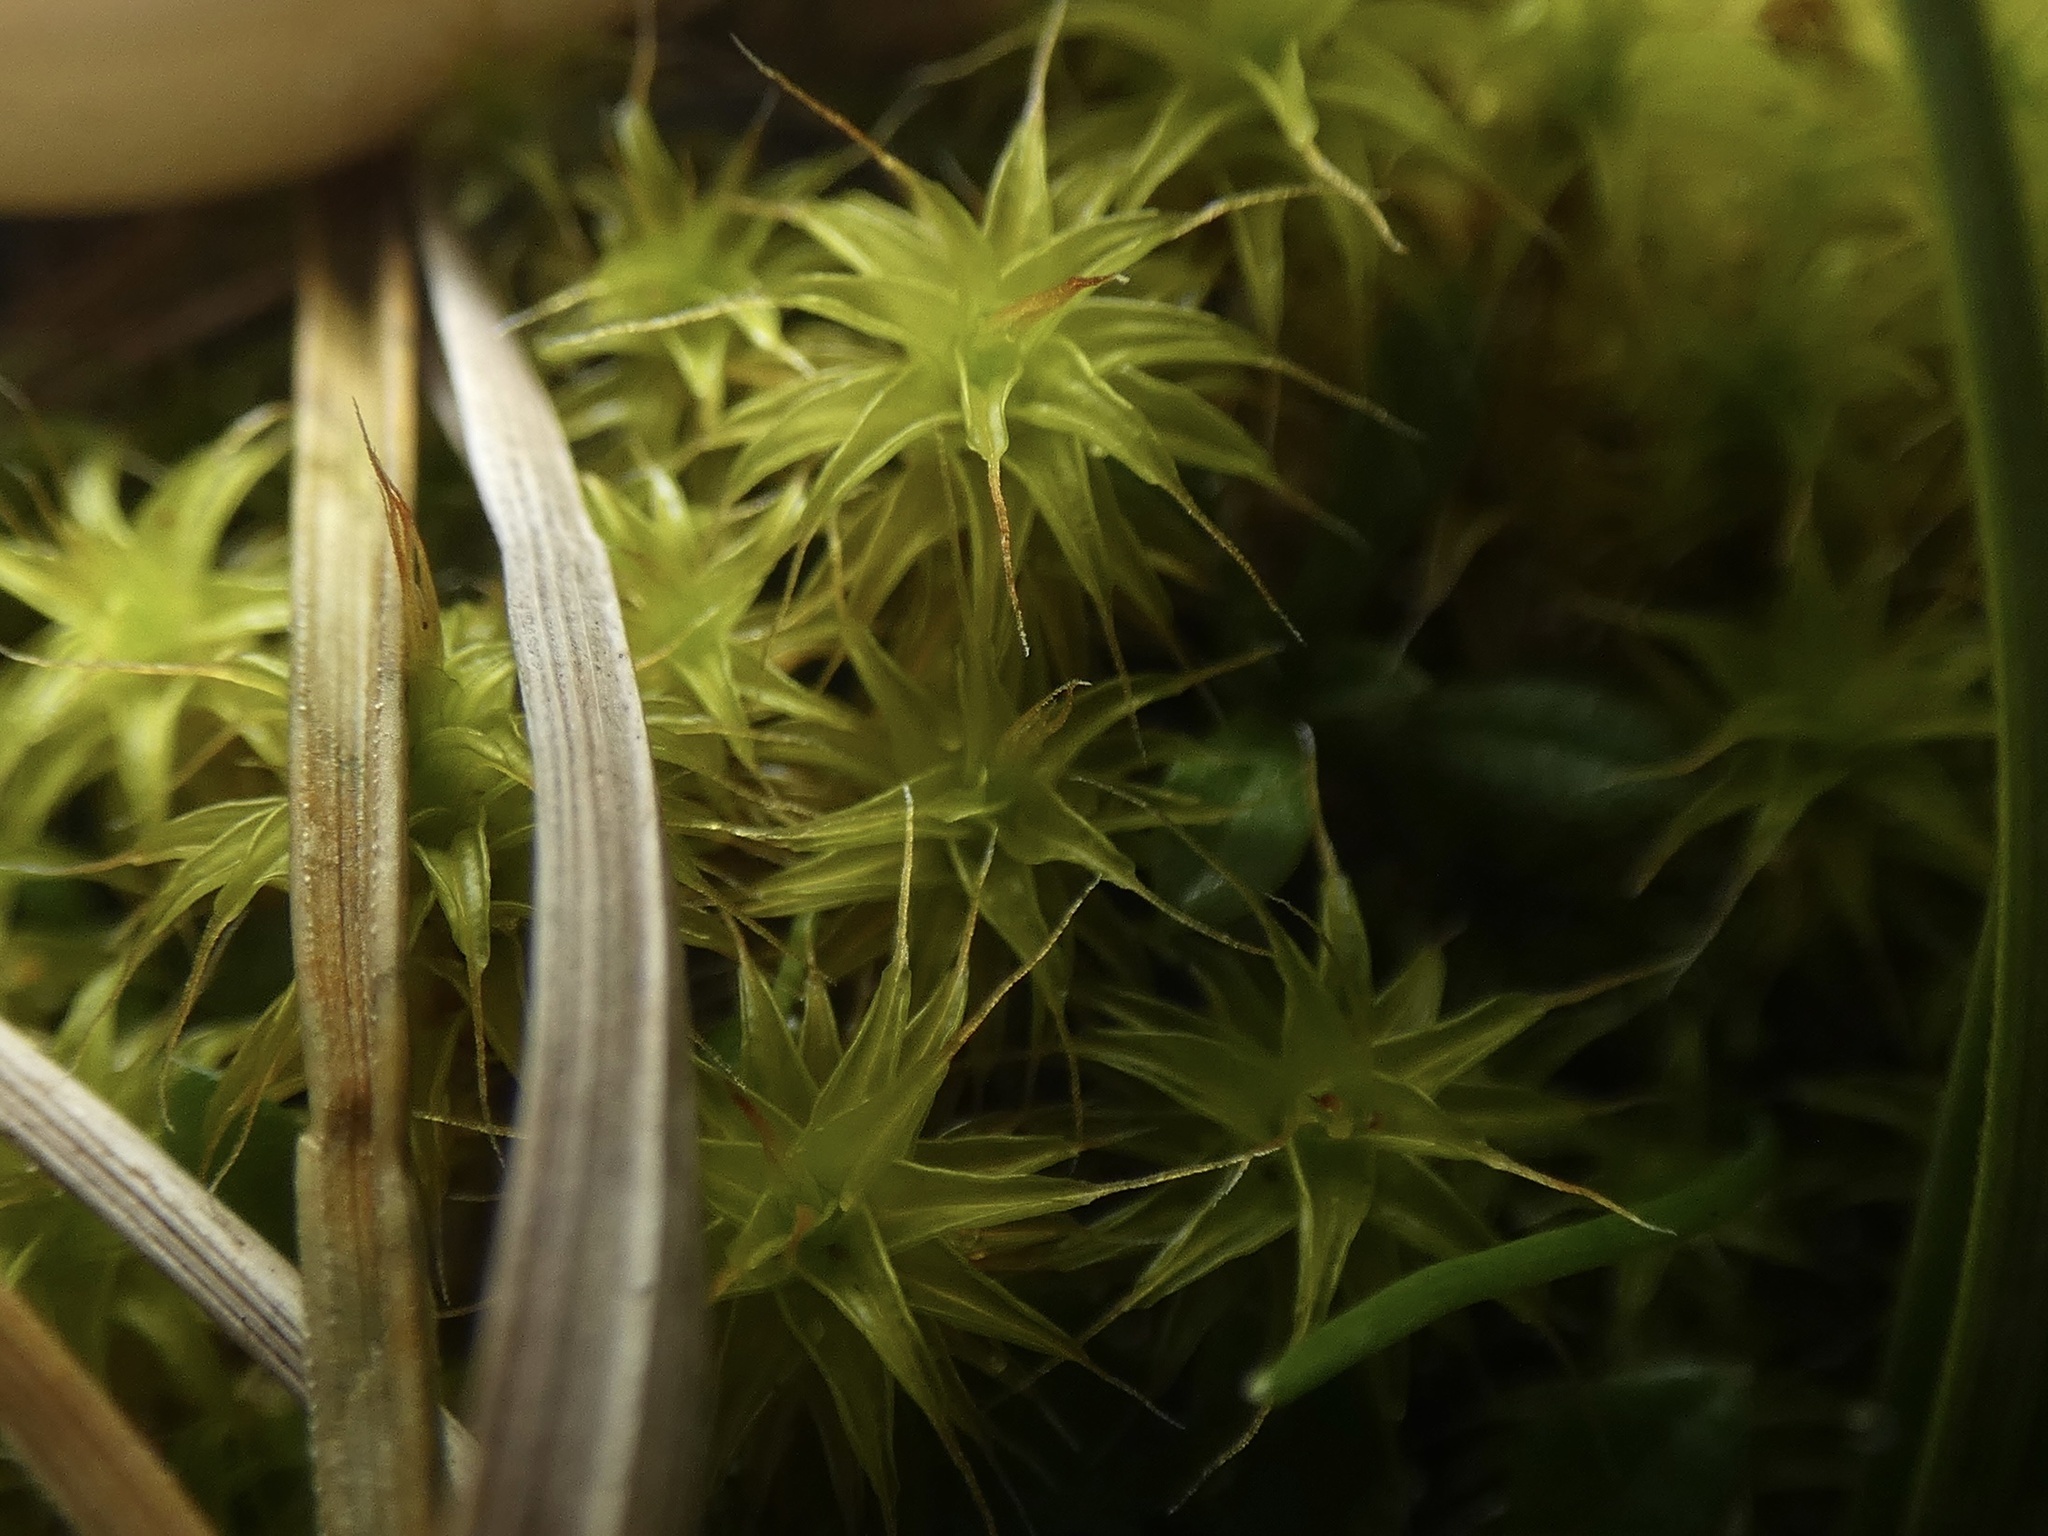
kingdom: Plantae
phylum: Bryophyta
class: Bryopsida
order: Pottiales
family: Pottiaceae
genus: Syntrichia
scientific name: Syntrichia ruralis
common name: Sidewalk screw moss
